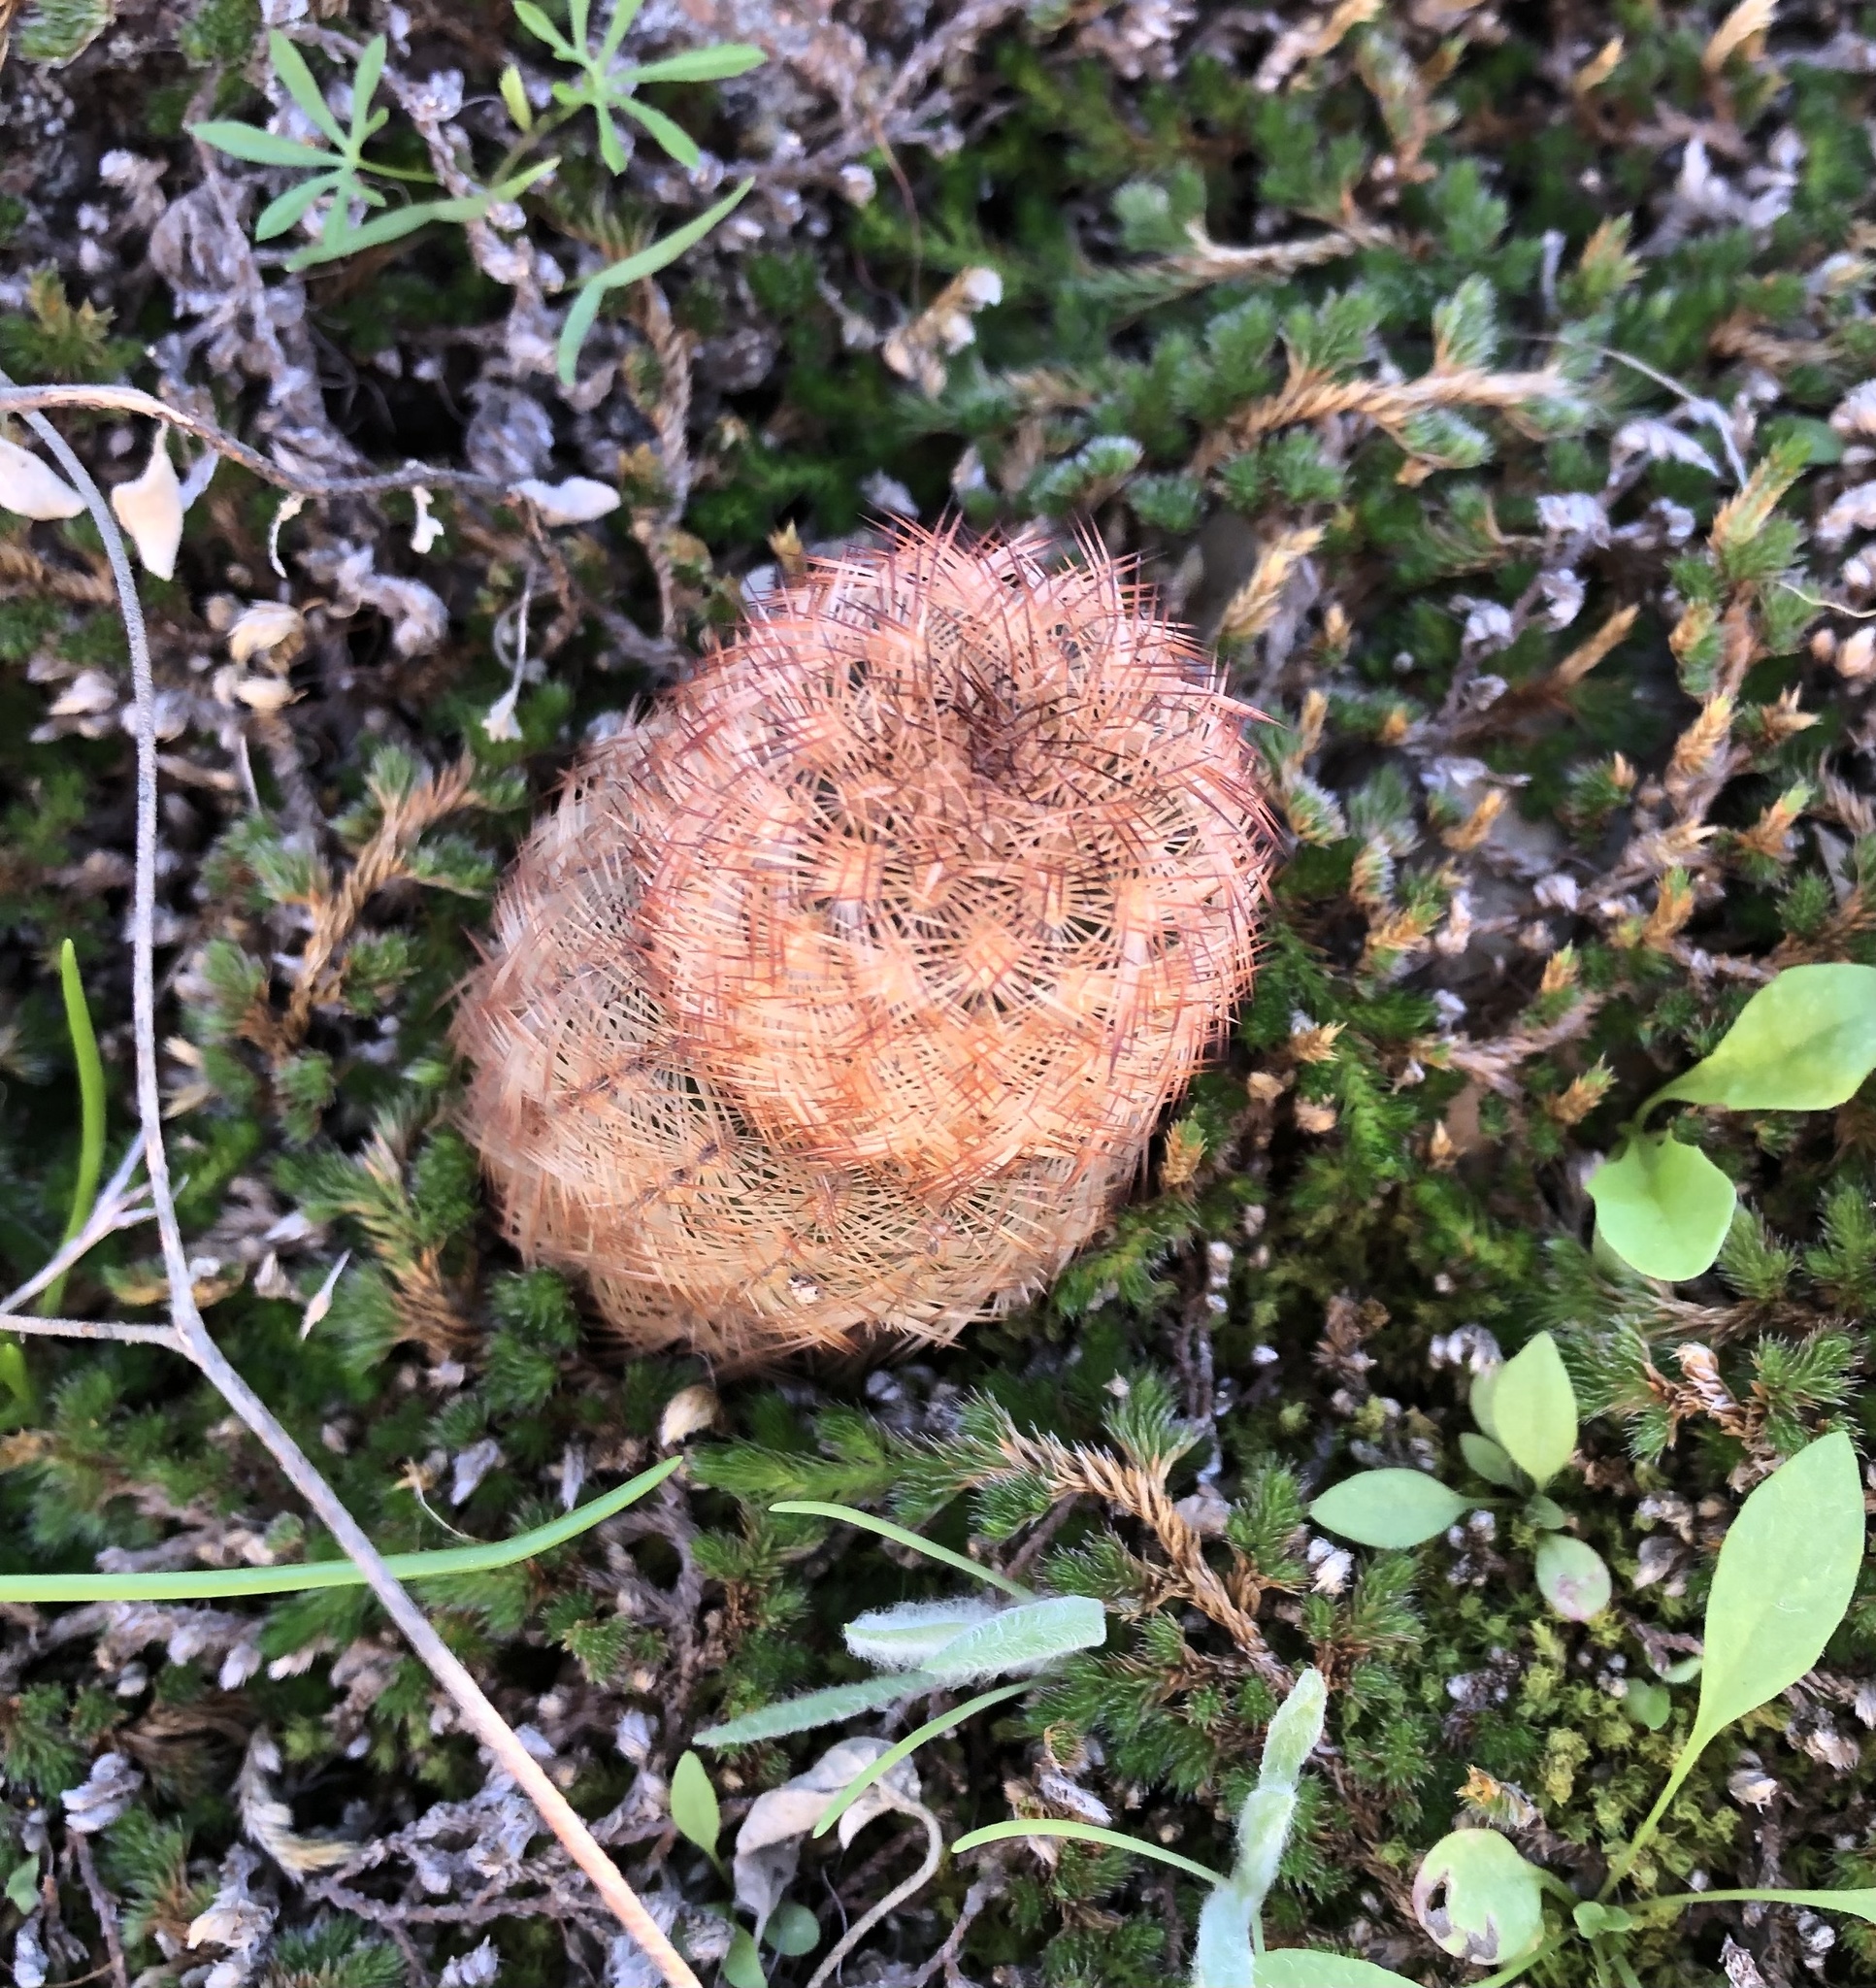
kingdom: Plantae
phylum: Tracheophyta
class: Magnoliopsida
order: Caryophyllales
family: Cactaceae
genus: Echinocereus
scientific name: Echinocereus reichenbachii
